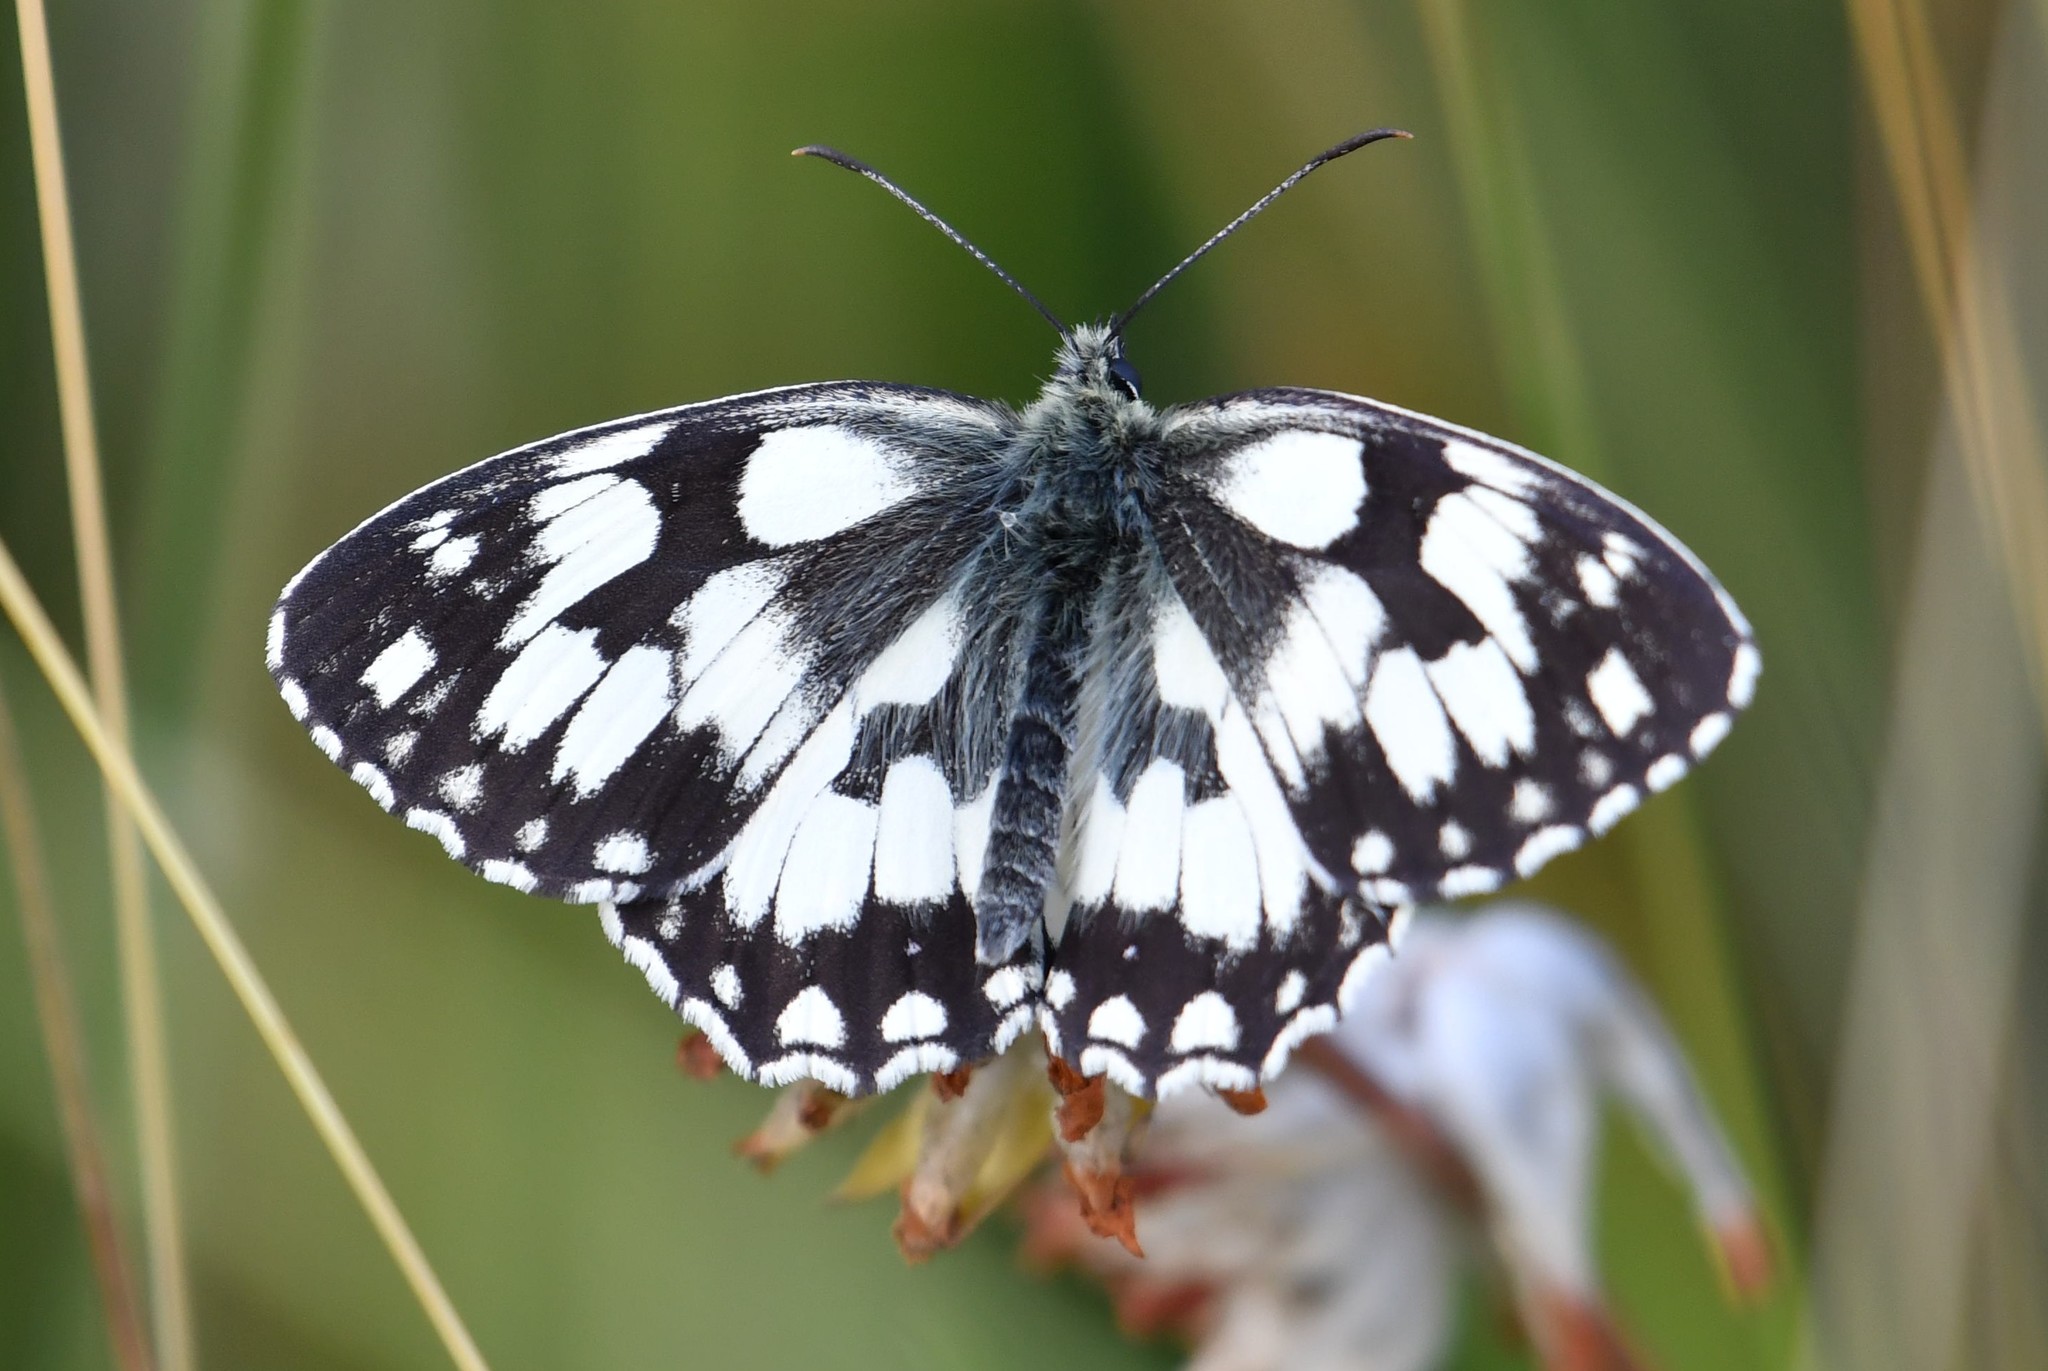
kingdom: Animalia
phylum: Arthropoda
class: Insecta
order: Lepidoptera
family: Nymphalidae
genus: Melanargia
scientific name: Melanargia galathea
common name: Marbled white
